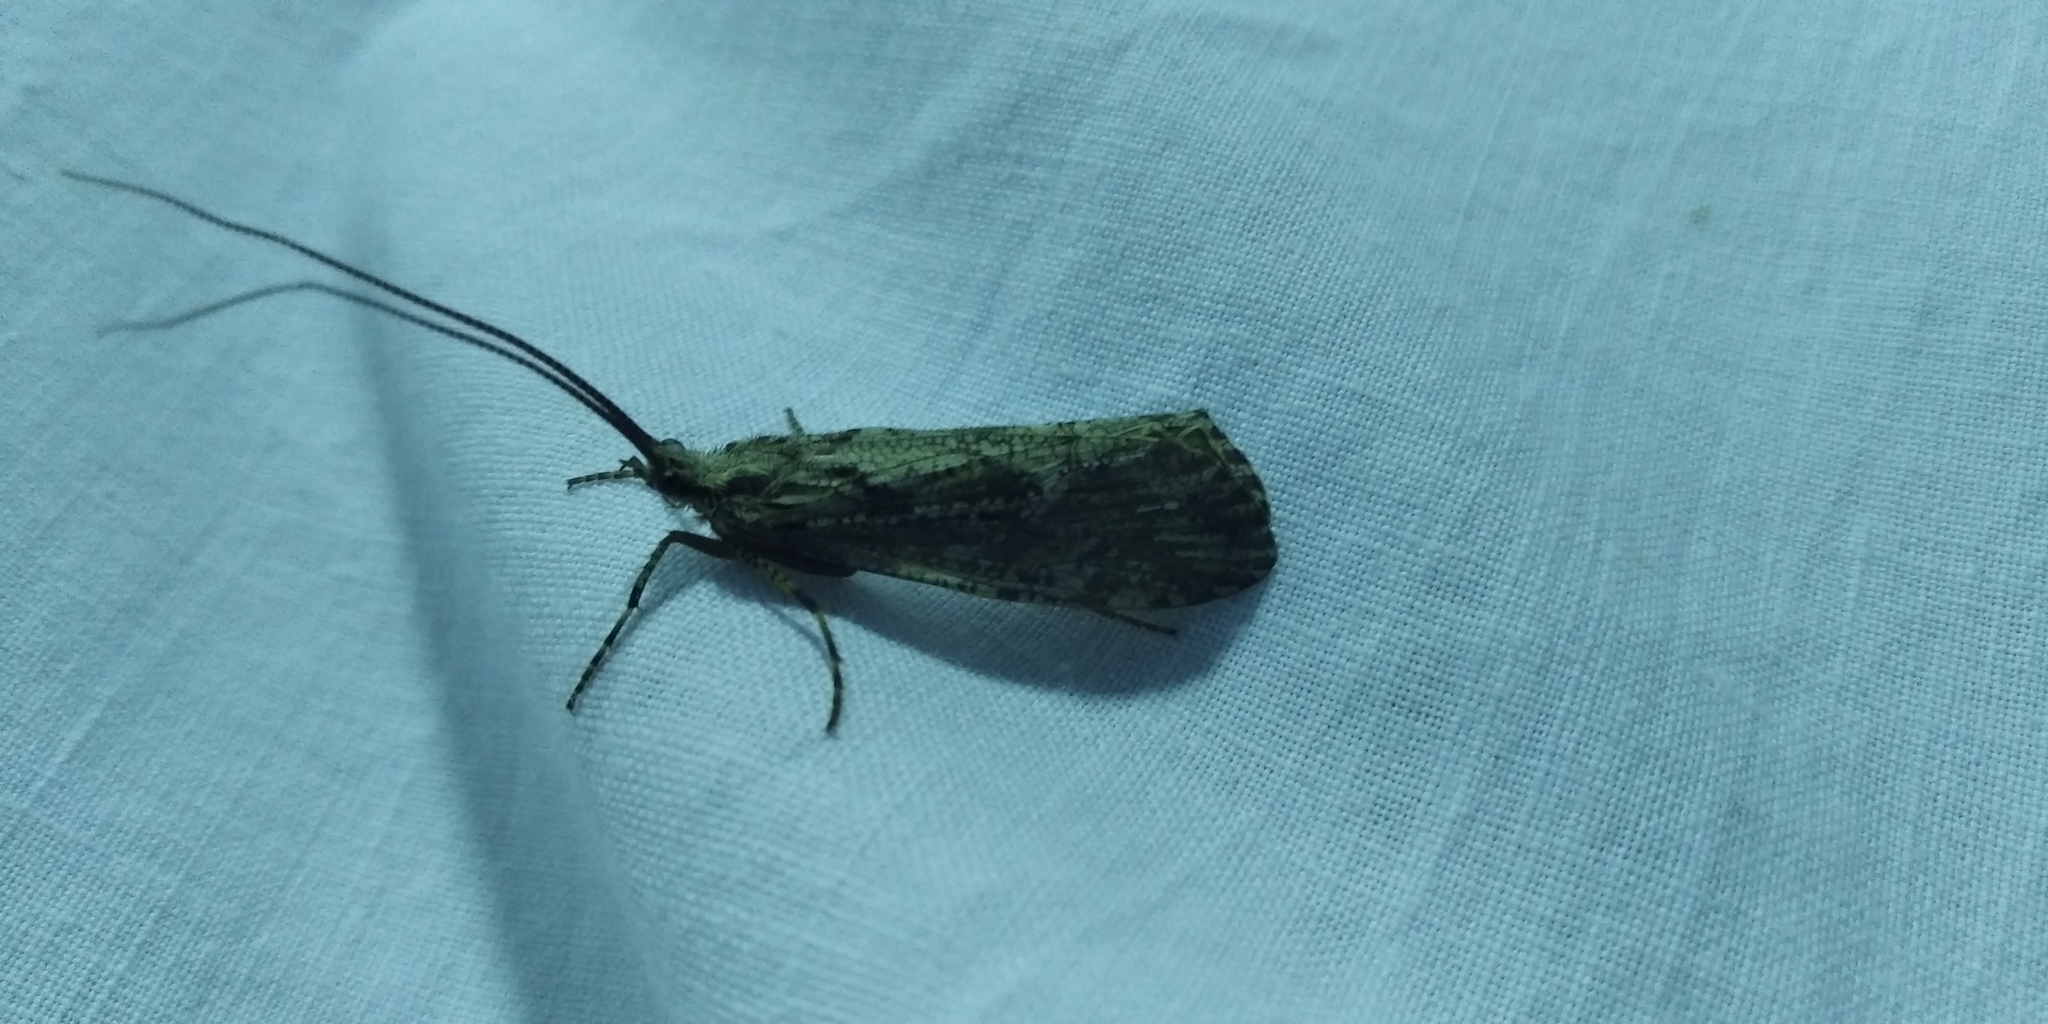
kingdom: Animalia
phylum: Arthropoda
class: Insecta
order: Trichoptera
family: Phryganeidae
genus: Phryganea
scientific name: Phryganea grandis
